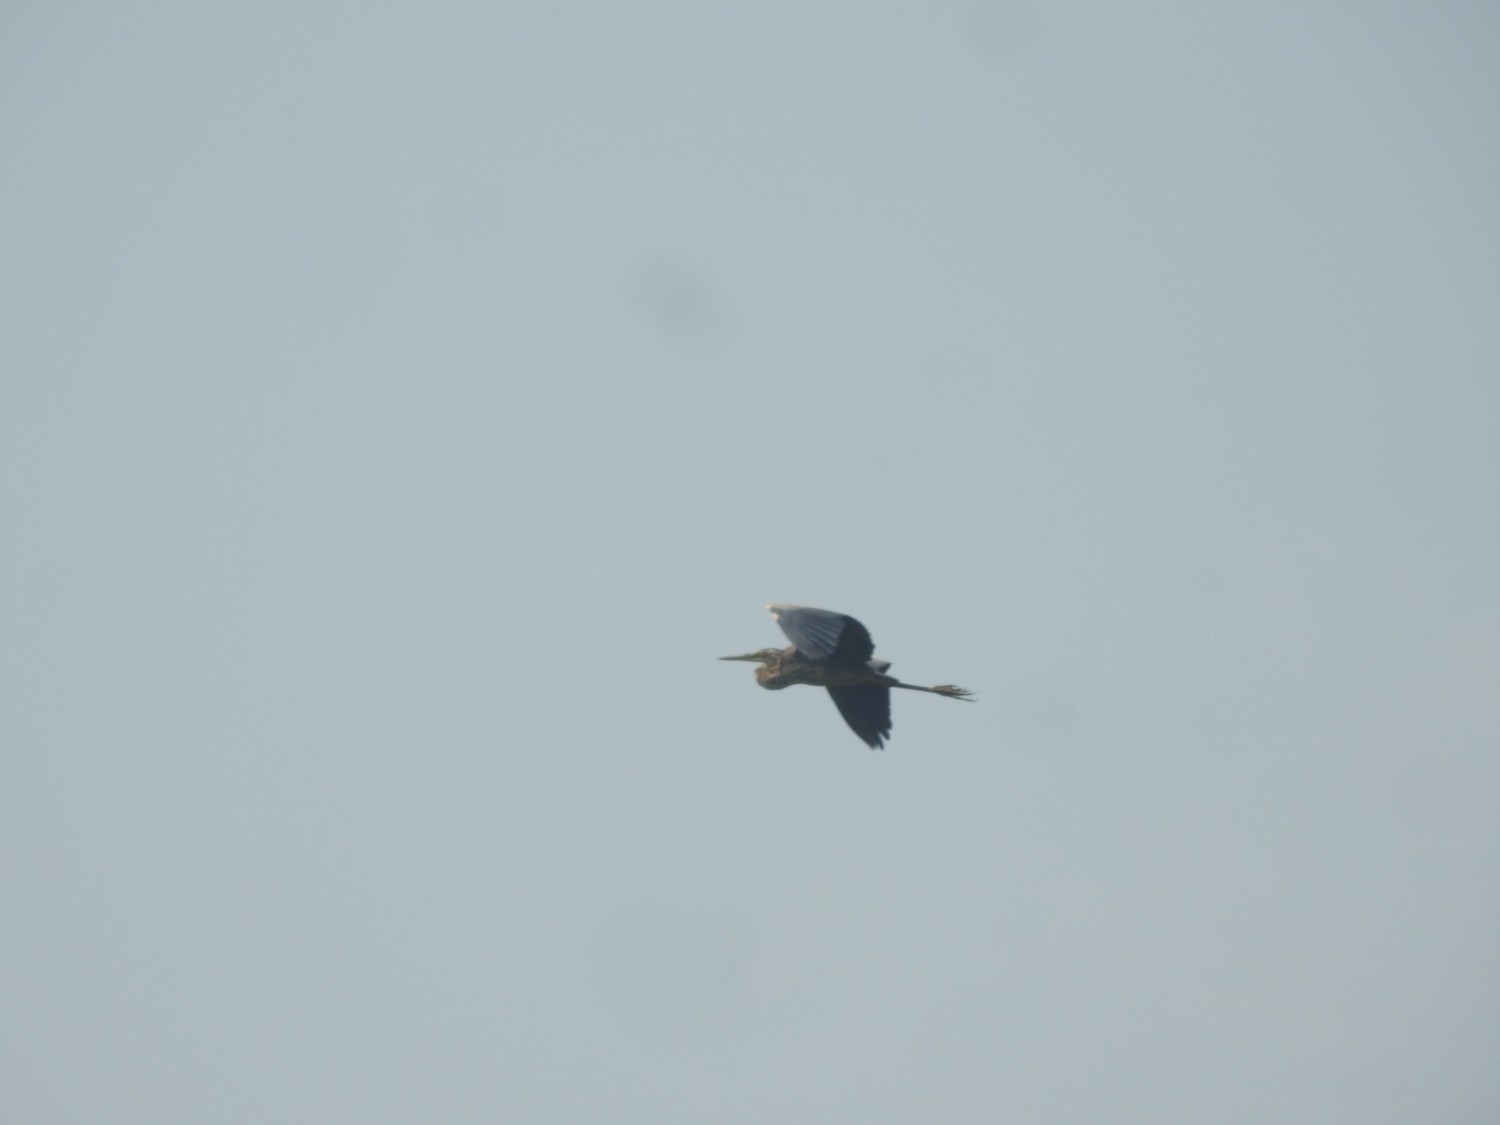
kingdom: Animalia
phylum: Chordata
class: Aves
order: Pelecaniformes
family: Ardeidae
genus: Ardea
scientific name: Ardea purpurea
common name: Purple heron
